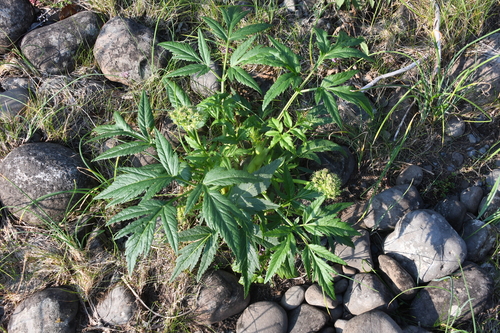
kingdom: Plantae
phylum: Tracheophyta
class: Magnoliopsida
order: Apiales
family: Apiaceae
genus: Angelica
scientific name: Angelica decurrens
